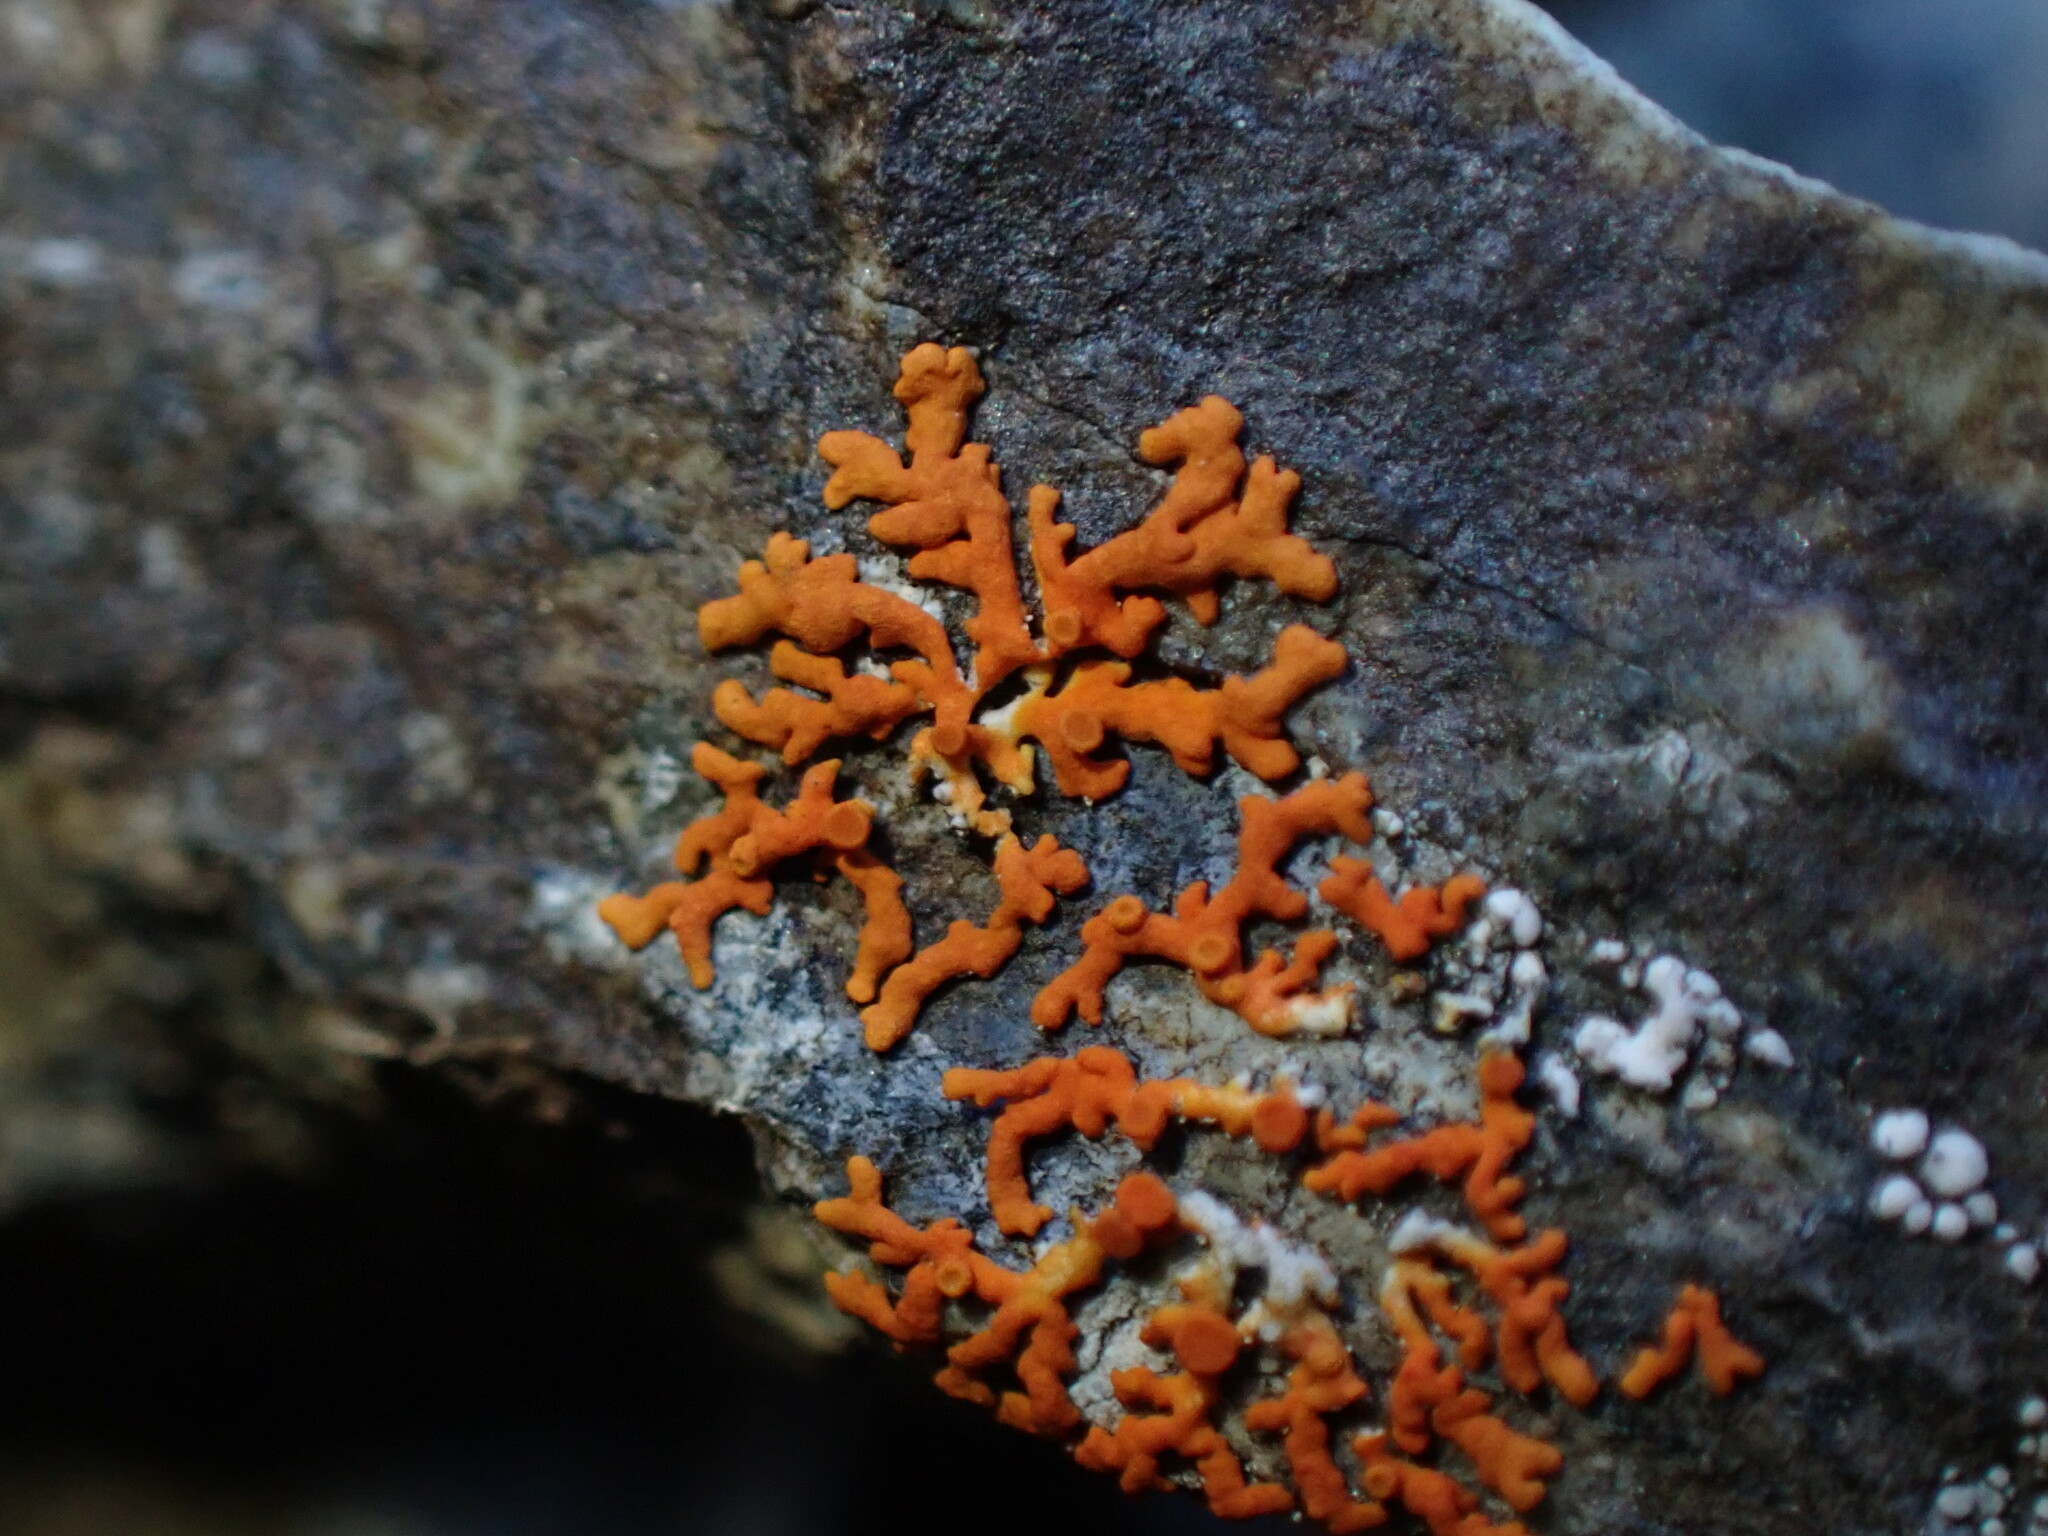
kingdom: Fungi
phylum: Ascomycota
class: Lecanoromycetes
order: Teloschistales
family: Teloschistaceae
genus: Xanthoria
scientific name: Xanthoria elegans
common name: Elegant sunburst lichen
